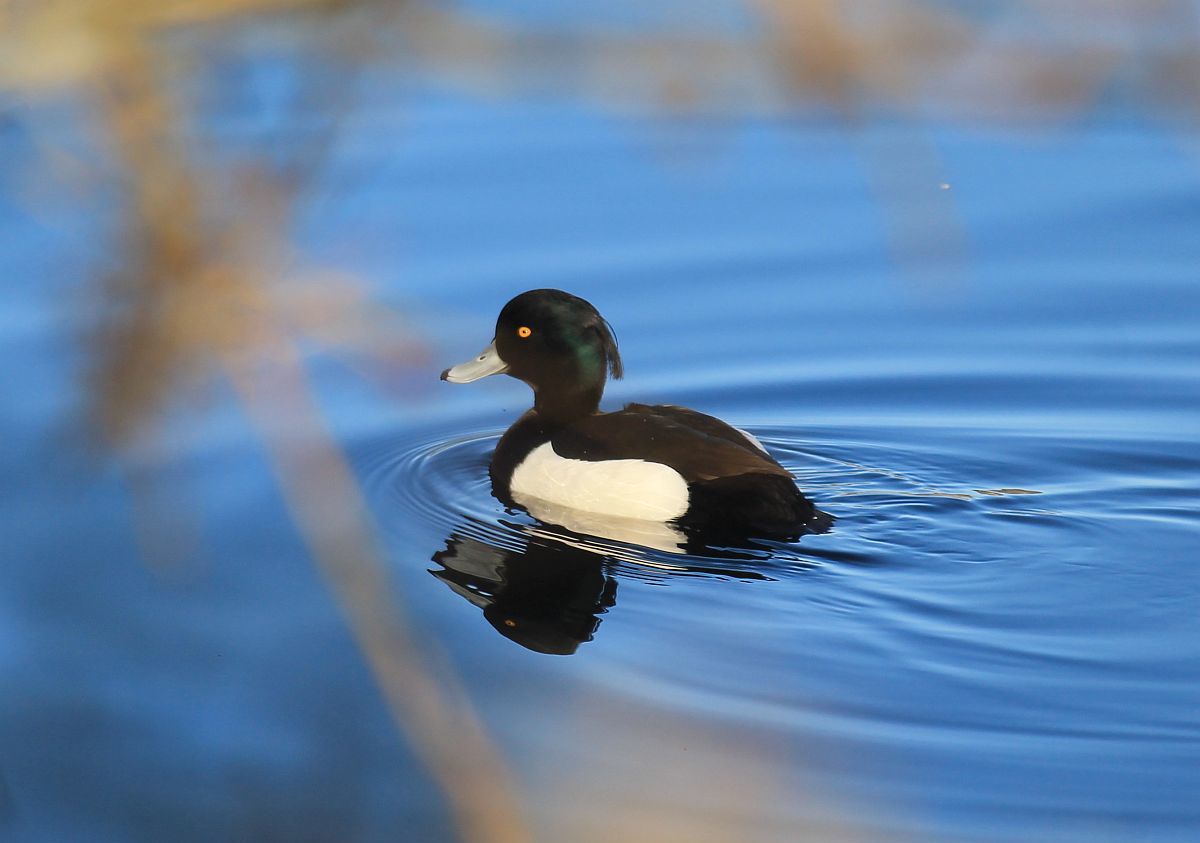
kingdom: Animalia
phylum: Chordata
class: Aves
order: Anseriformes
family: Anatidae
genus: Aythya
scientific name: Aythya fuligula
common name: Tufted duck
